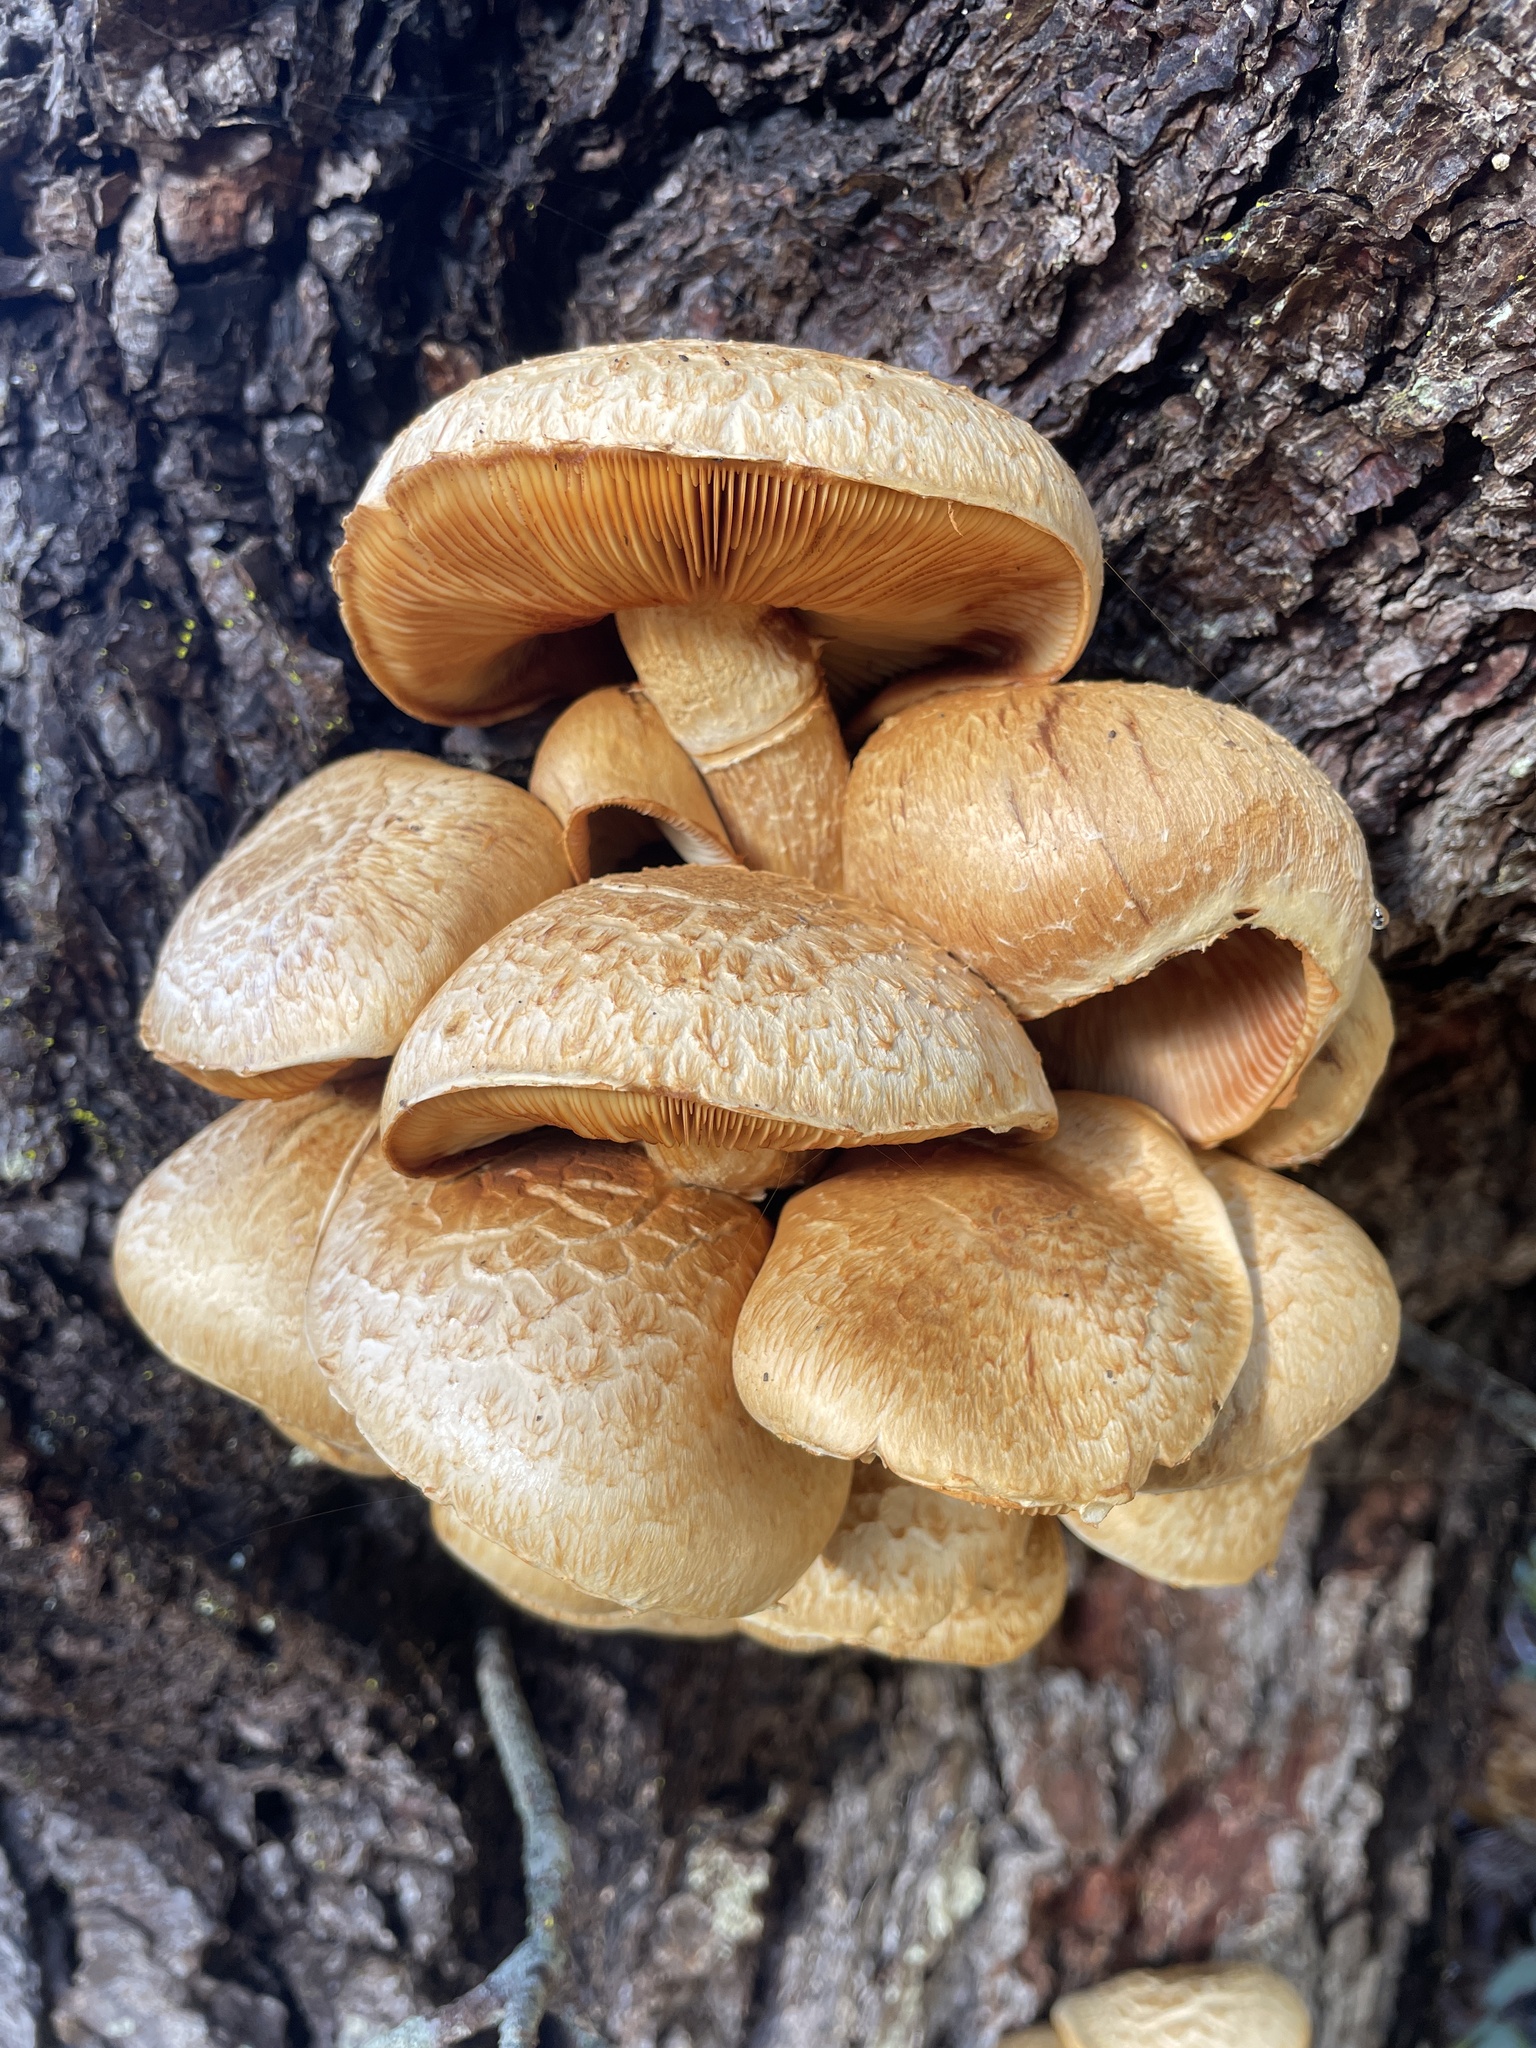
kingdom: Fungi
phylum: Basidiomycota
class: Agaricomycetes
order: Agaricales
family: Hymenogastraceae
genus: Gymnopilus
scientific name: Gymnopilus ventricosus
